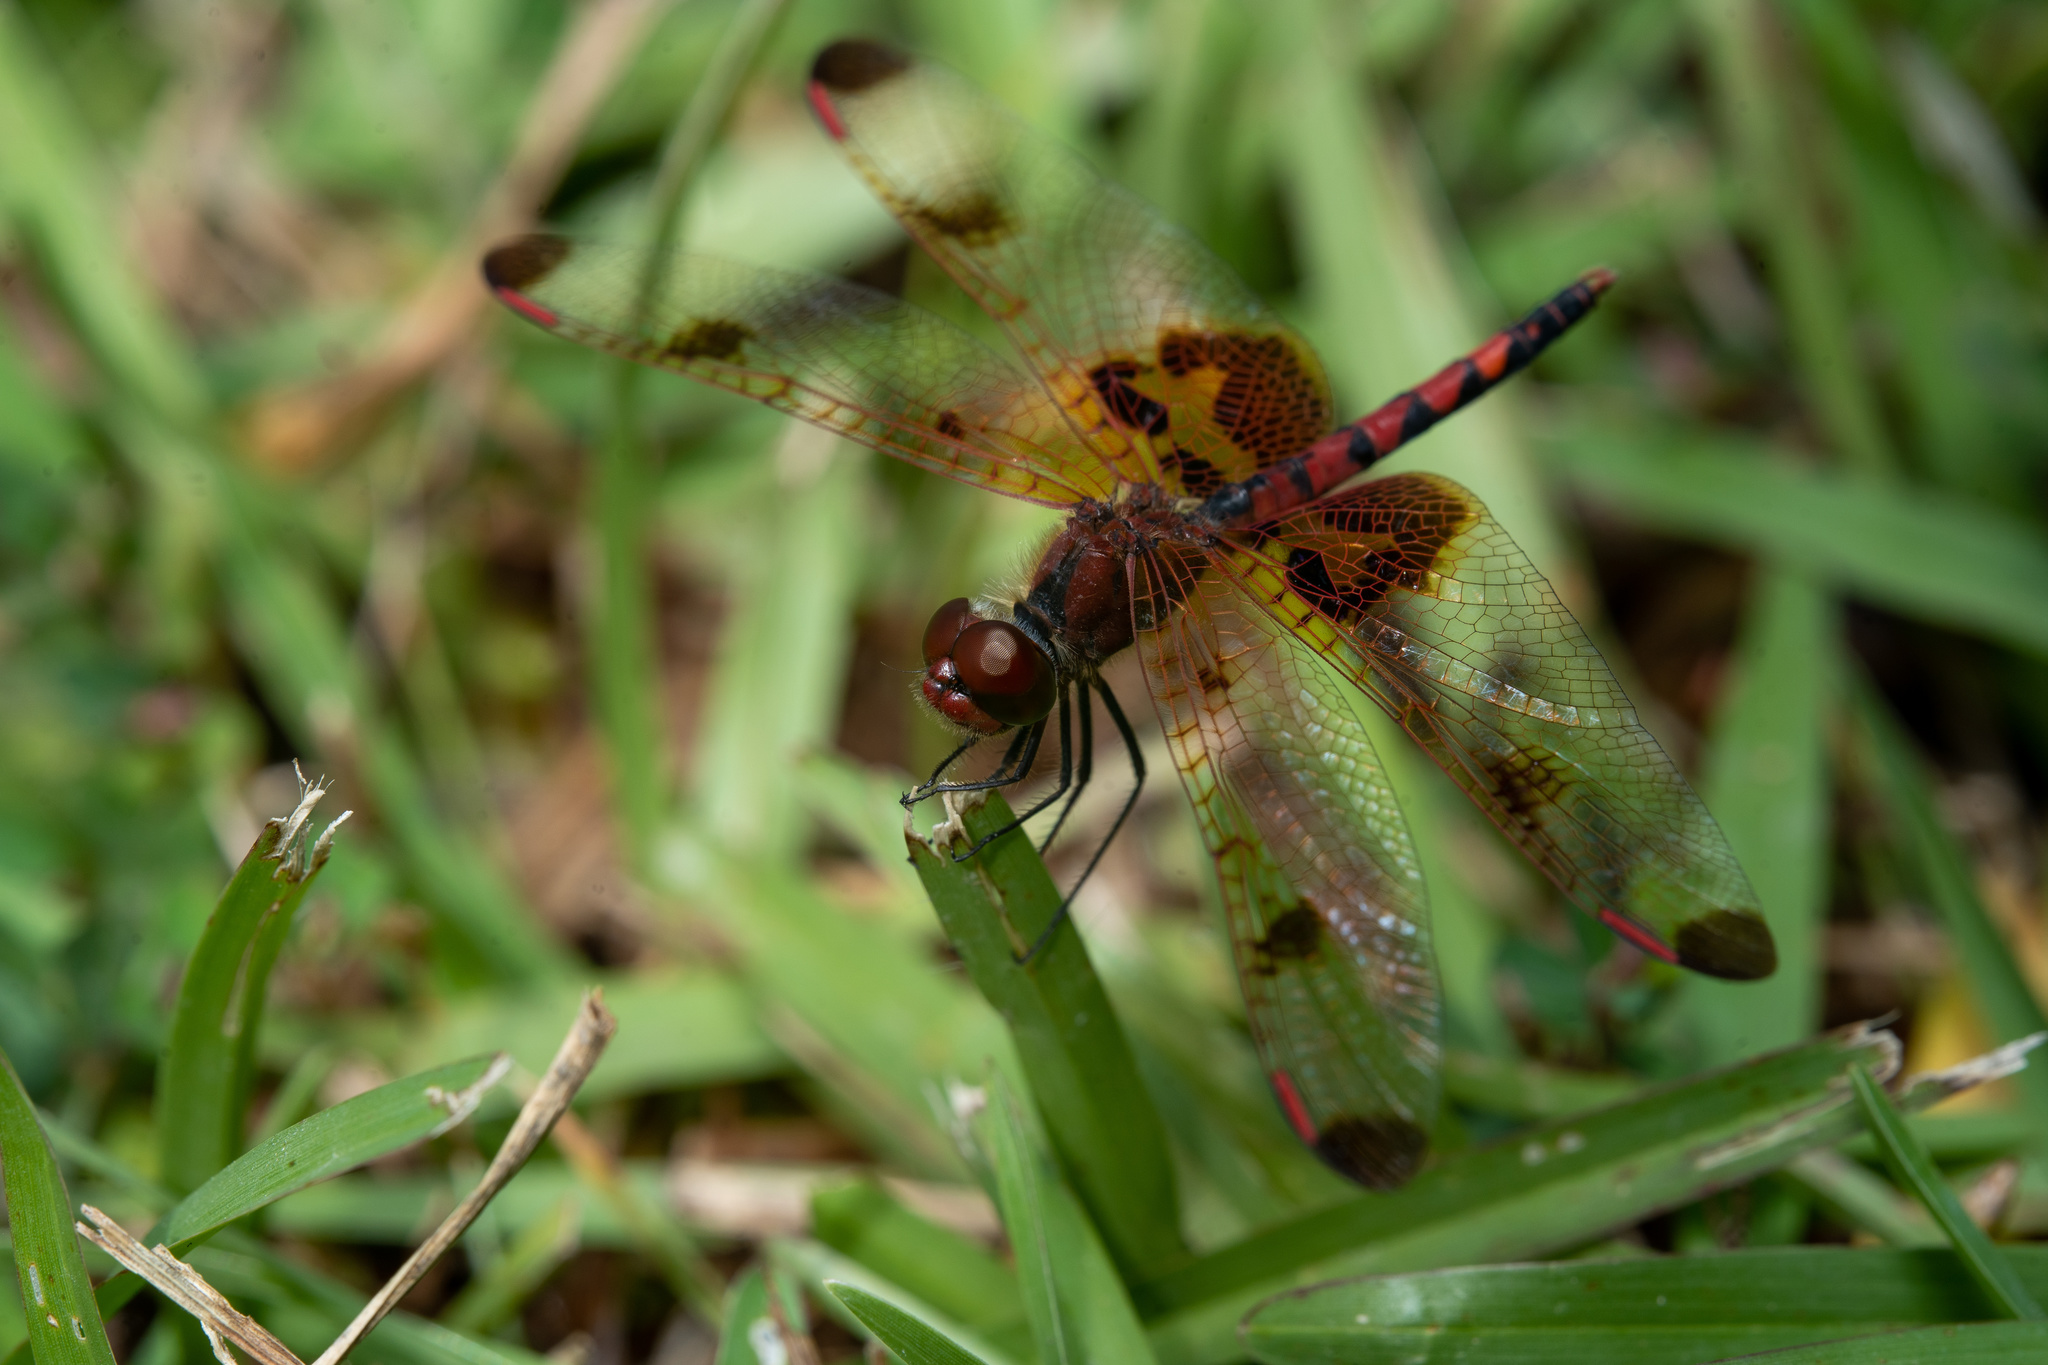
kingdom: Animalia
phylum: Arthropoda
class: Insecta
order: Odonata
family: Libellulidae
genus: Celithemis
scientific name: Celithemis elisa
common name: Calico pennant
